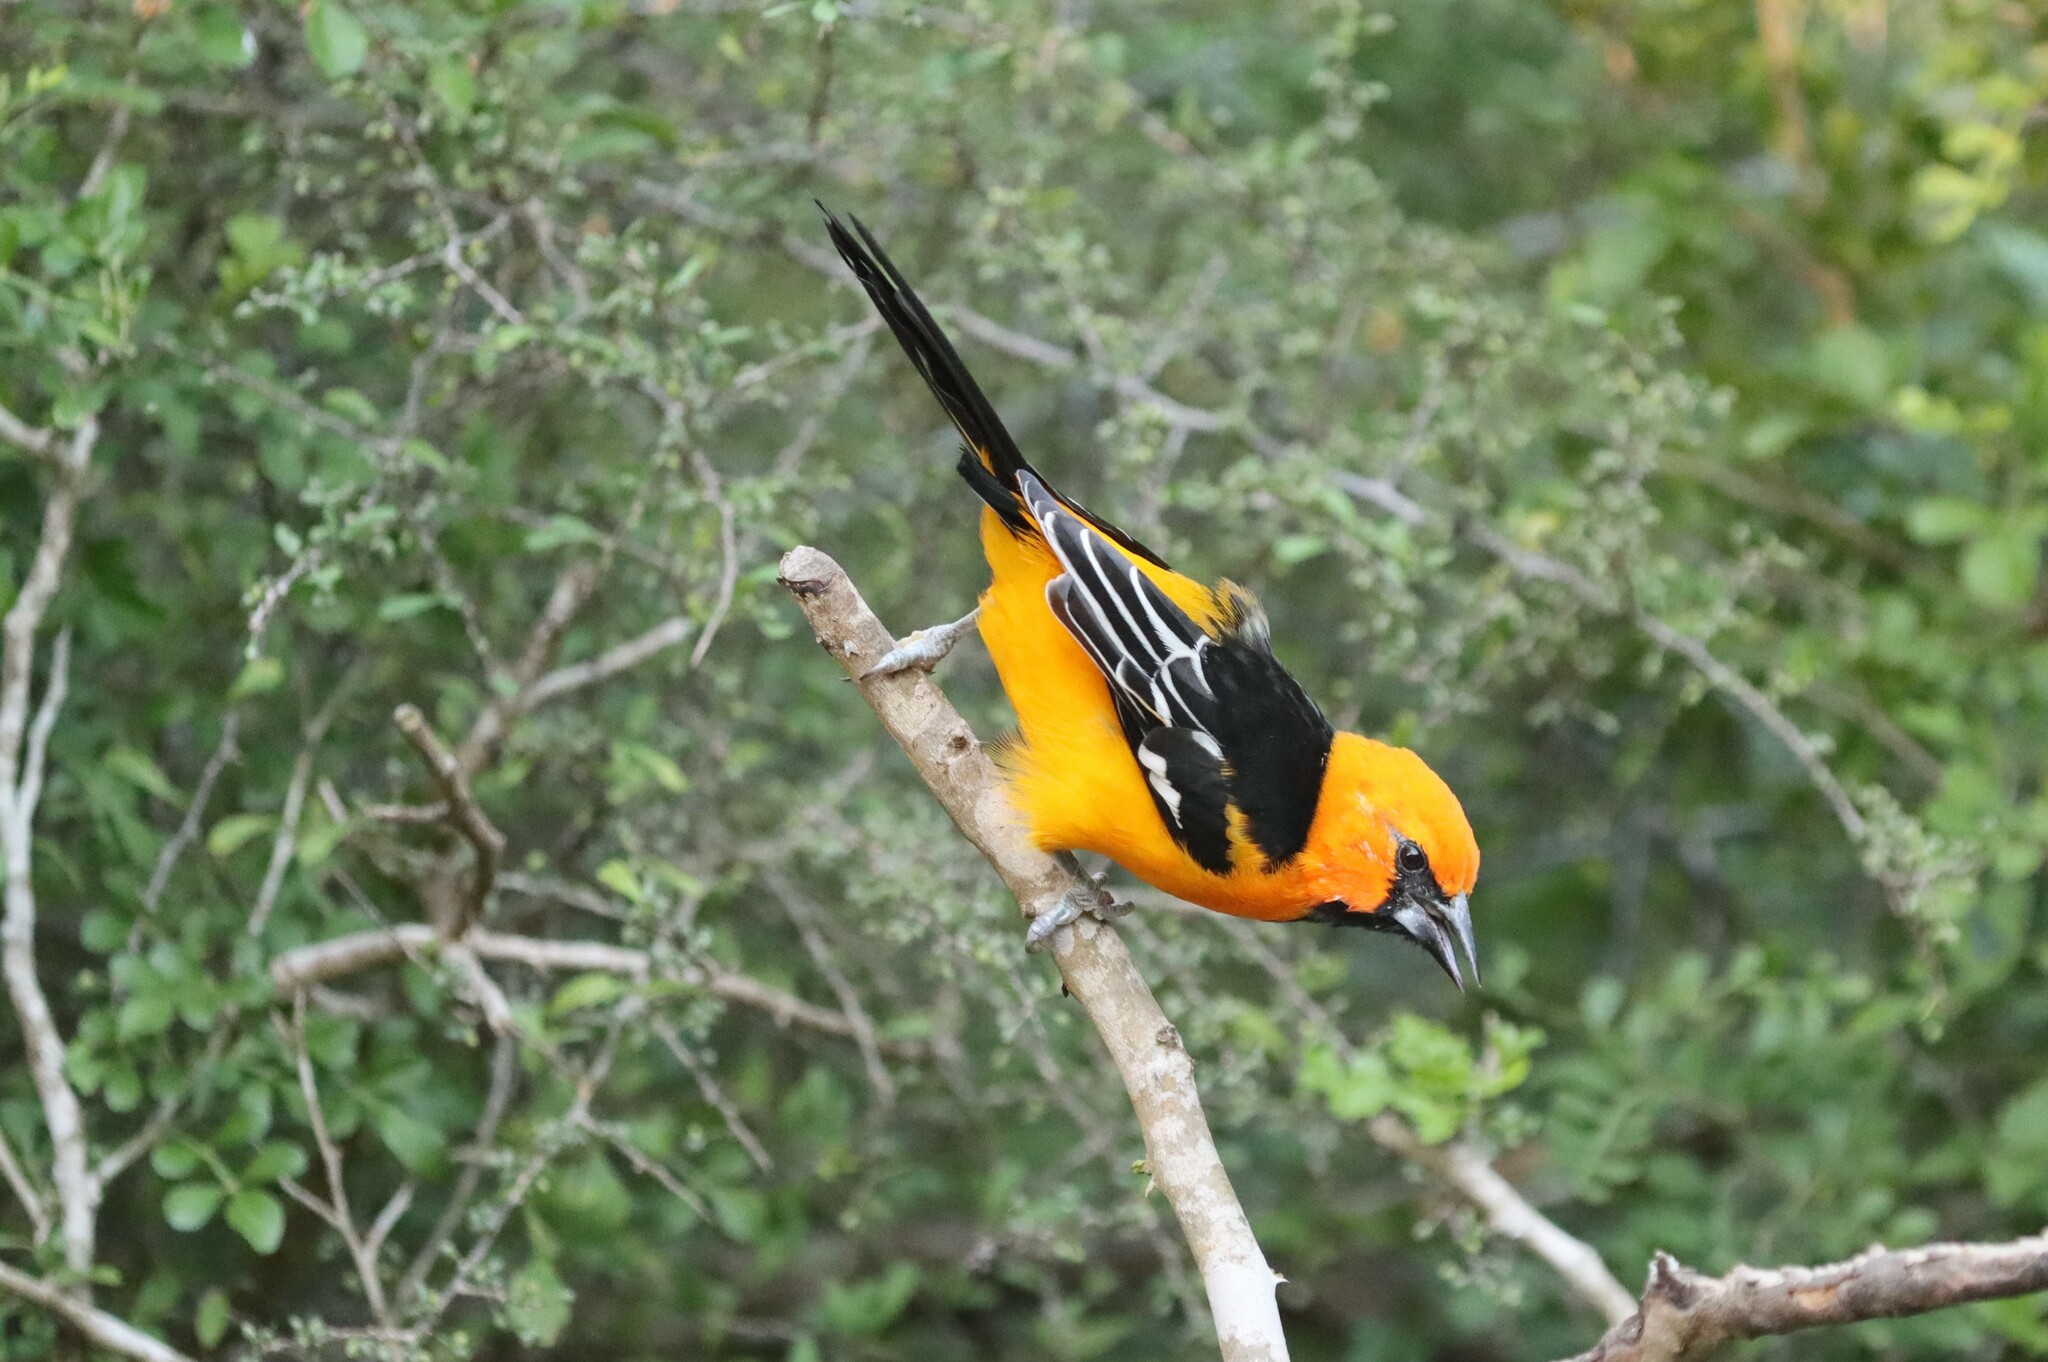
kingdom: Animalia
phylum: Chordata
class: Aves
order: Passeriformes
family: Icteridae
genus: Icterus
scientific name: Icterus gularis
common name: Altamira oriole
